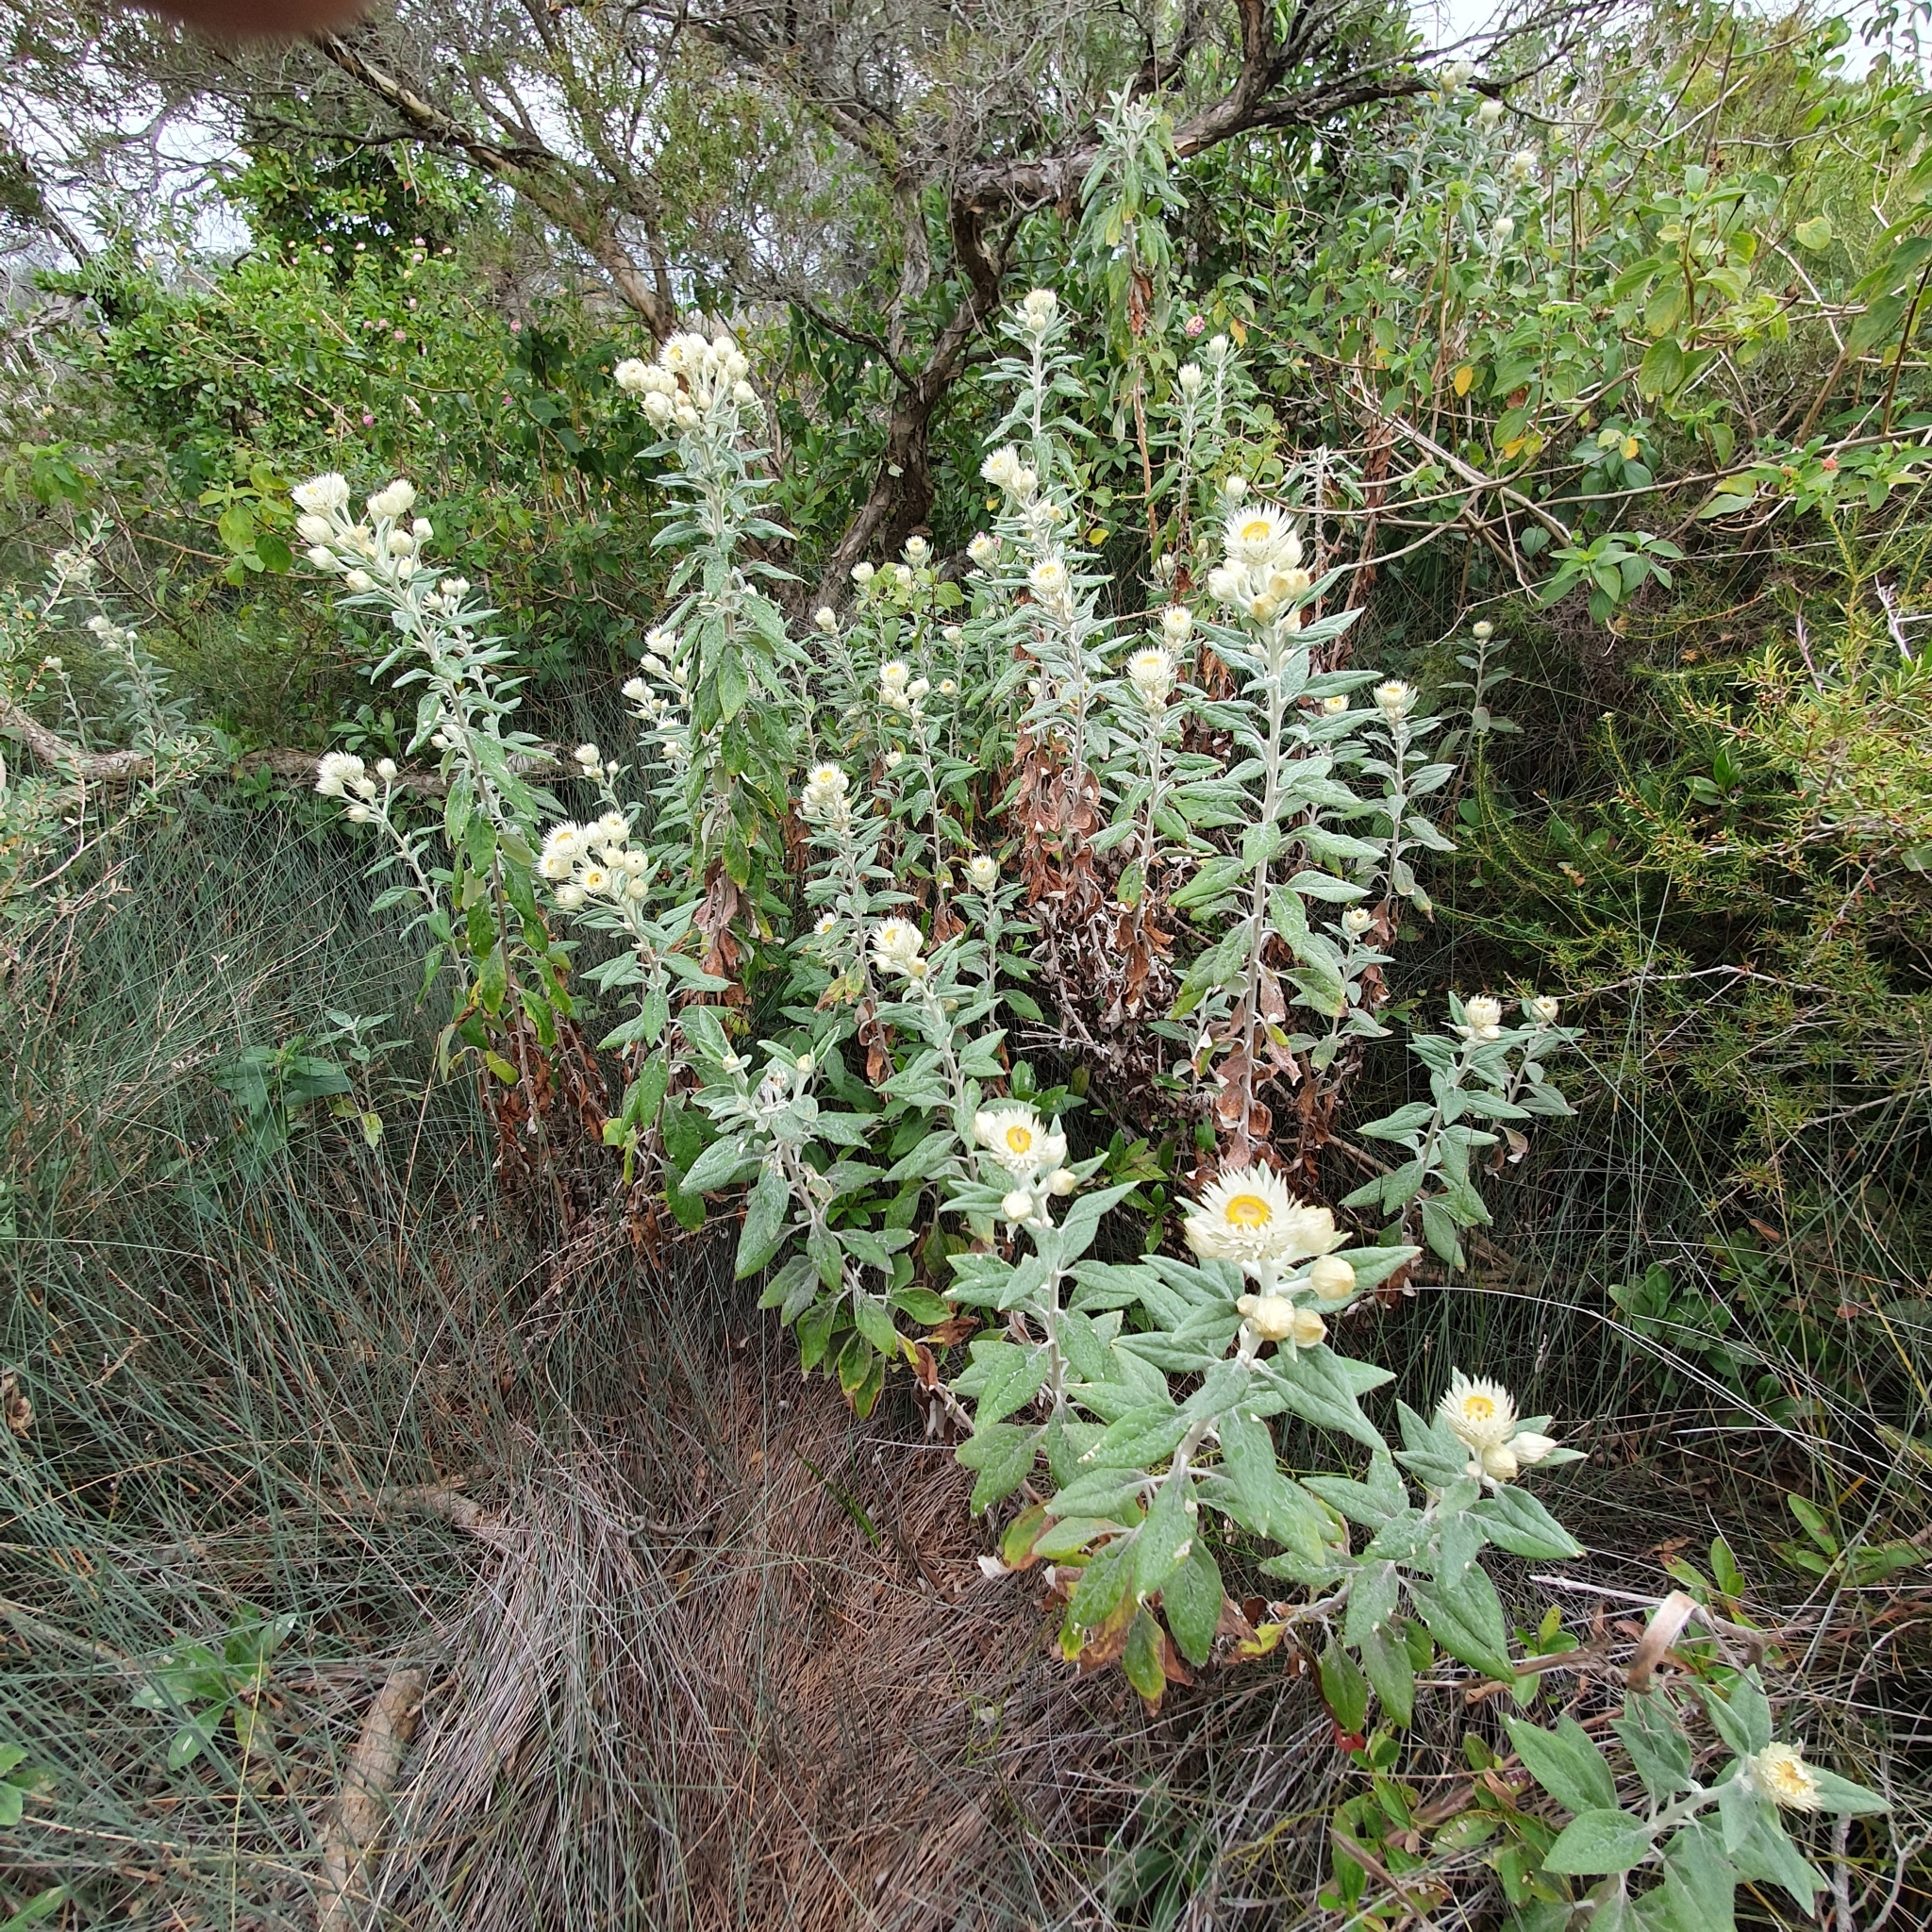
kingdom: Plantae
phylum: Tracheophyta
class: Magnoliopsida
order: Asterales
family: Asteraceae
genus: Leucozoma
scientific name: Leucozoma elatum
